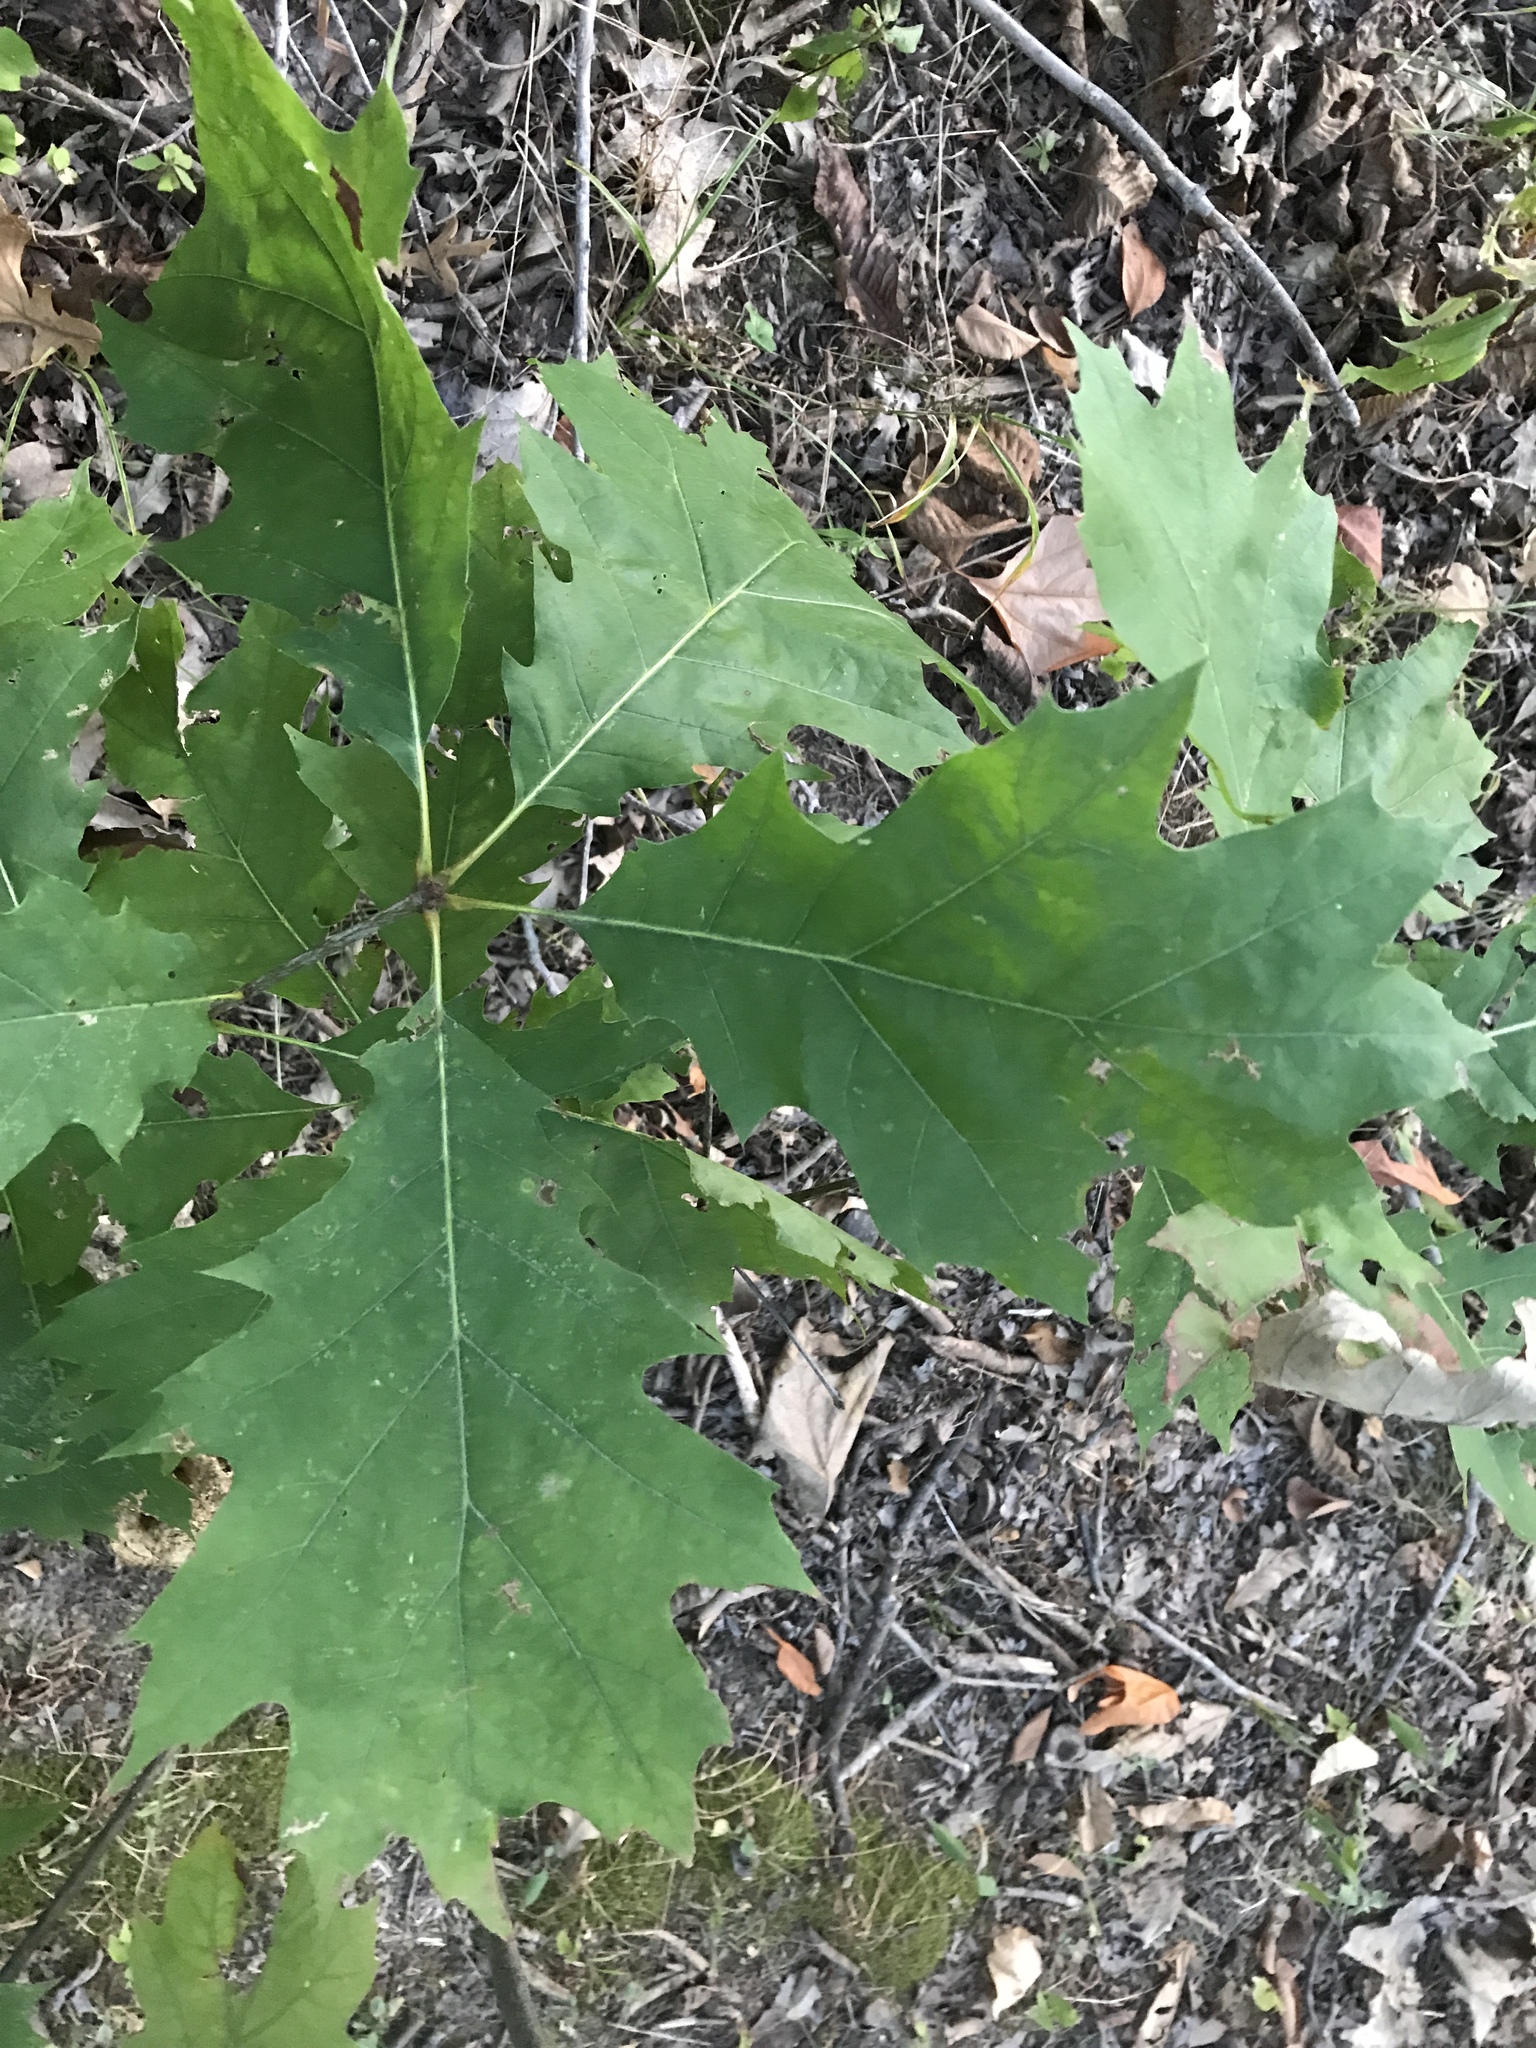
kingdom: Plantae
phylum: Tracheophyta
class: Magnoliopsida
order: Fagales
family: Fagaceae
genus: Quercus
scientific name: Quercus rubra
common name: Red oak
